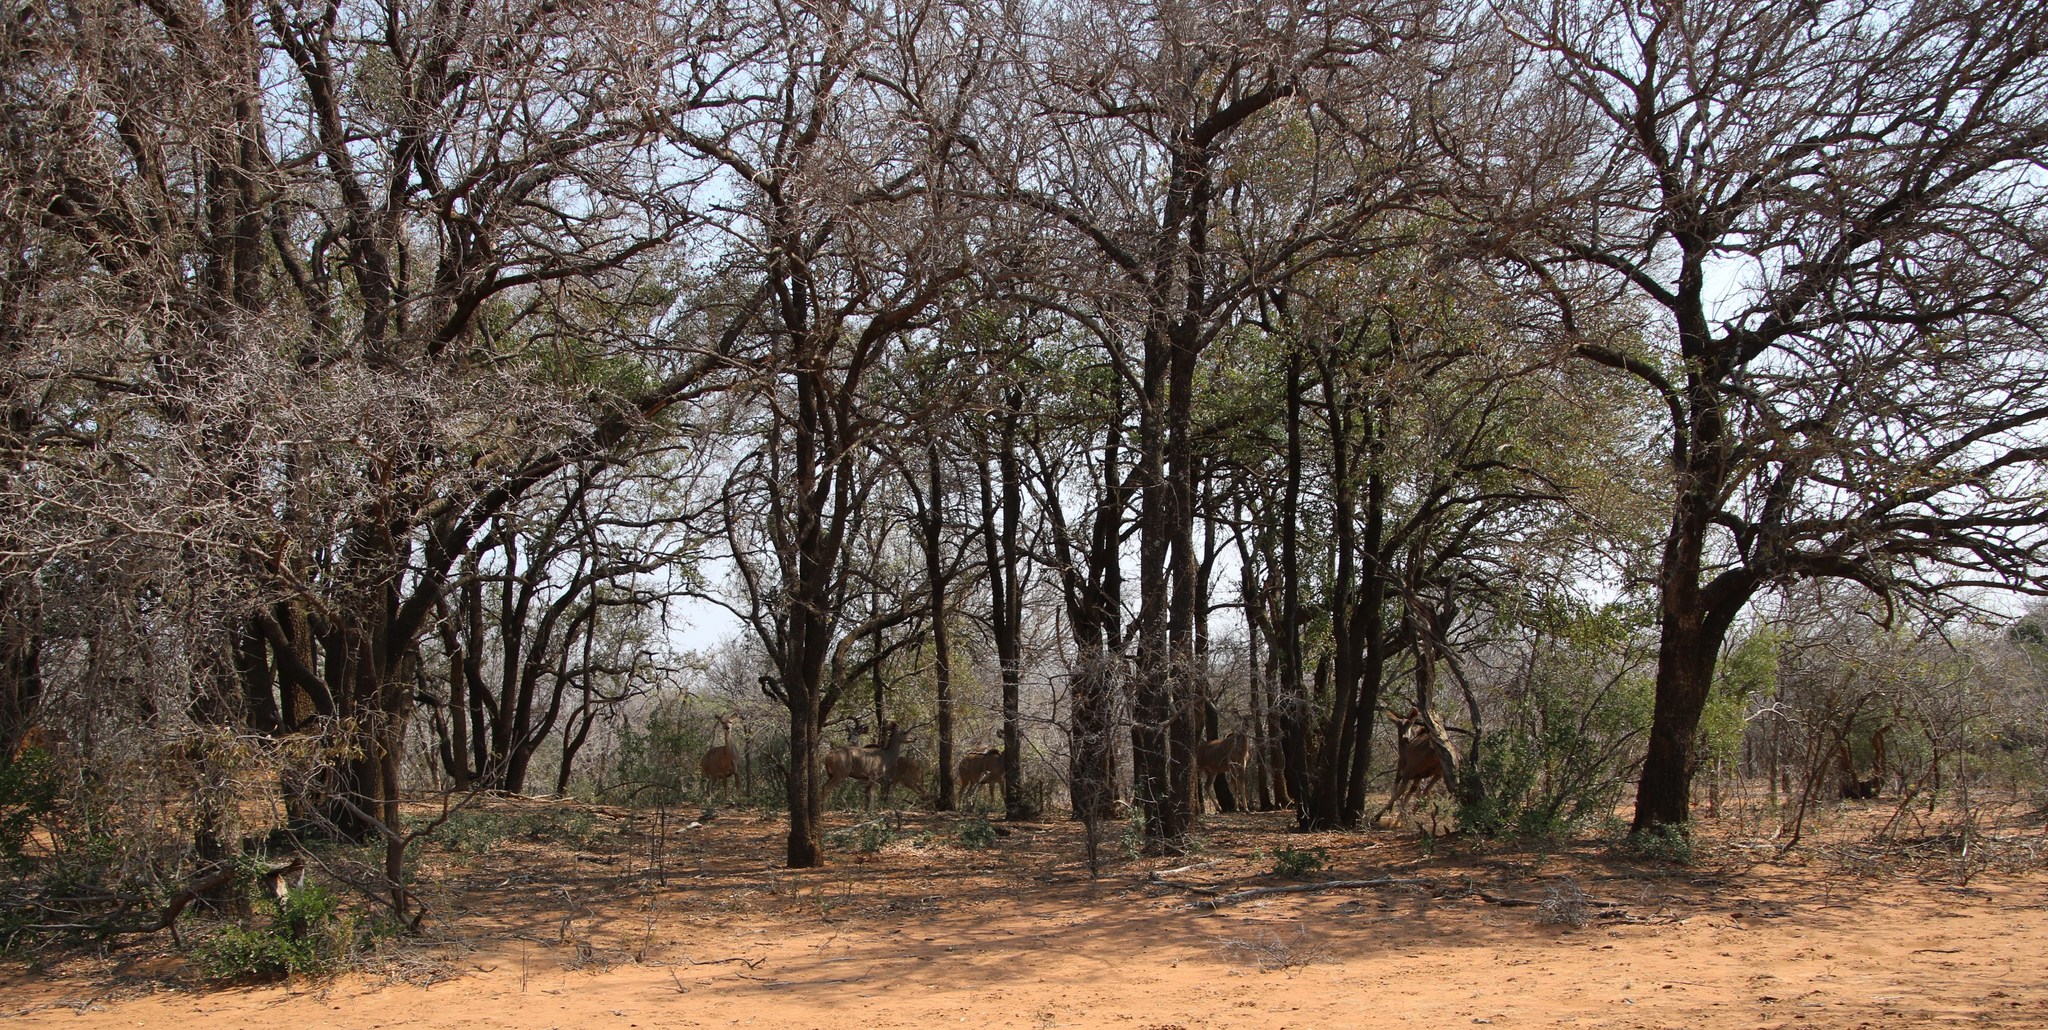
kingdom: Animalia
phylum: Chordata
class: Mammalia
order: Artiodactyla
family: Bovidae
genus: Tragelaphus
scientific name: Tragelaphus strepsiceros
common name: Greater kudu
